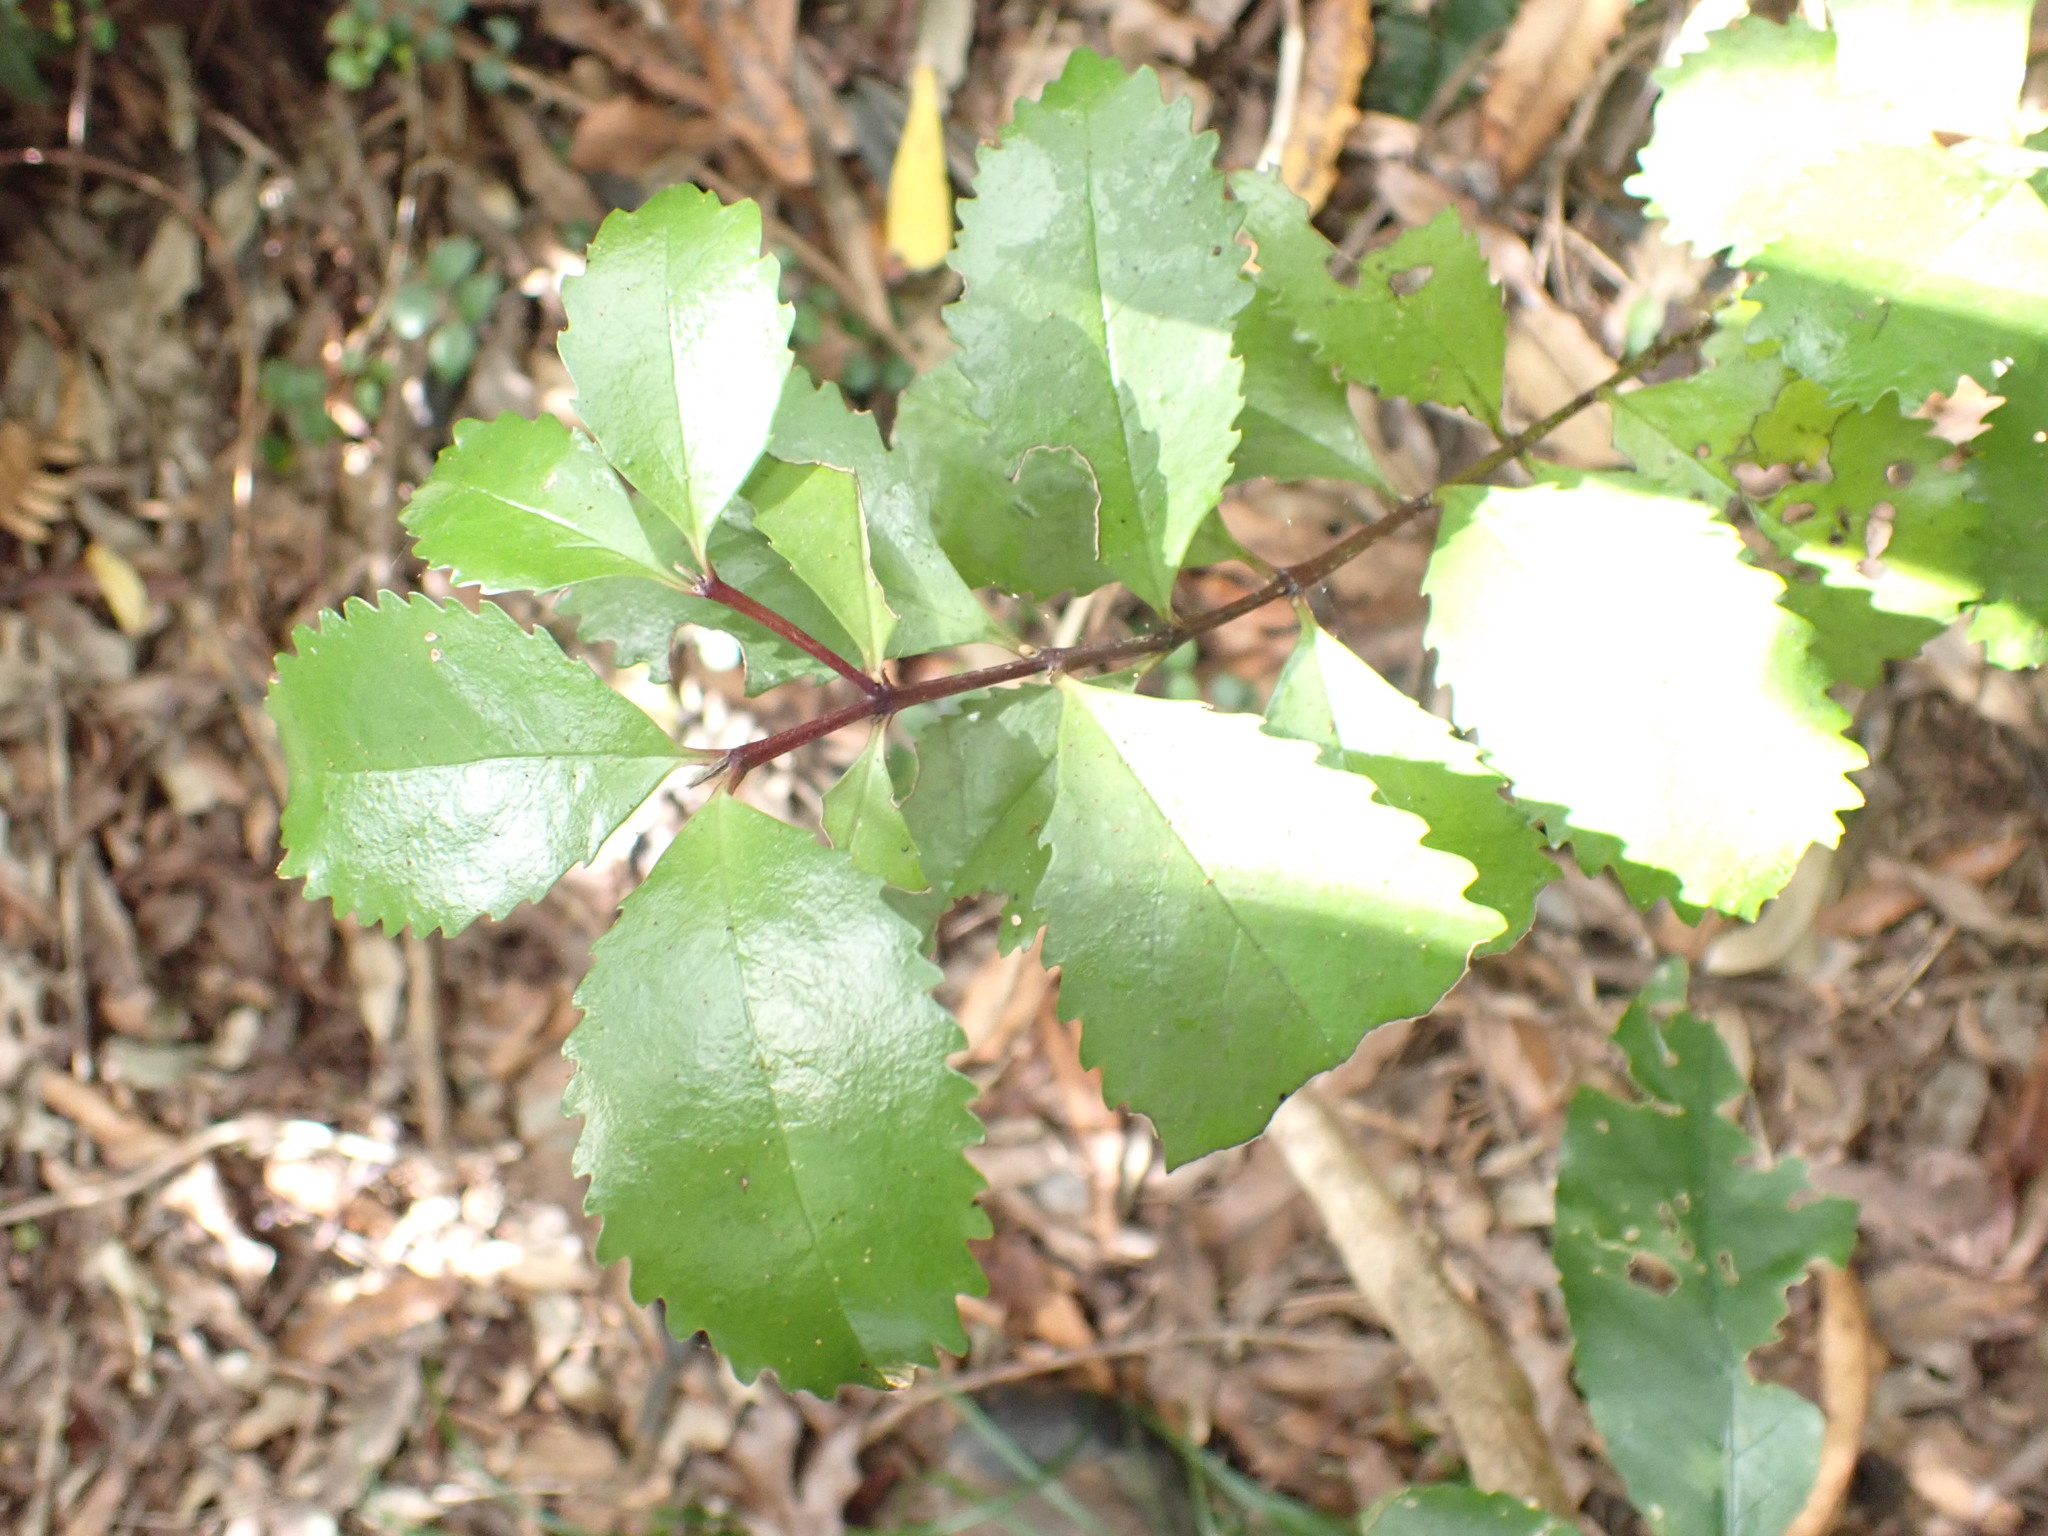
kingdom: Plantae
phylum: Tracheophyta
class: Magnoliopsida
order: Laurales
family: Atherospermataceae
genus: Laurelia
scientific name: Laurelia novae-zelandiae
